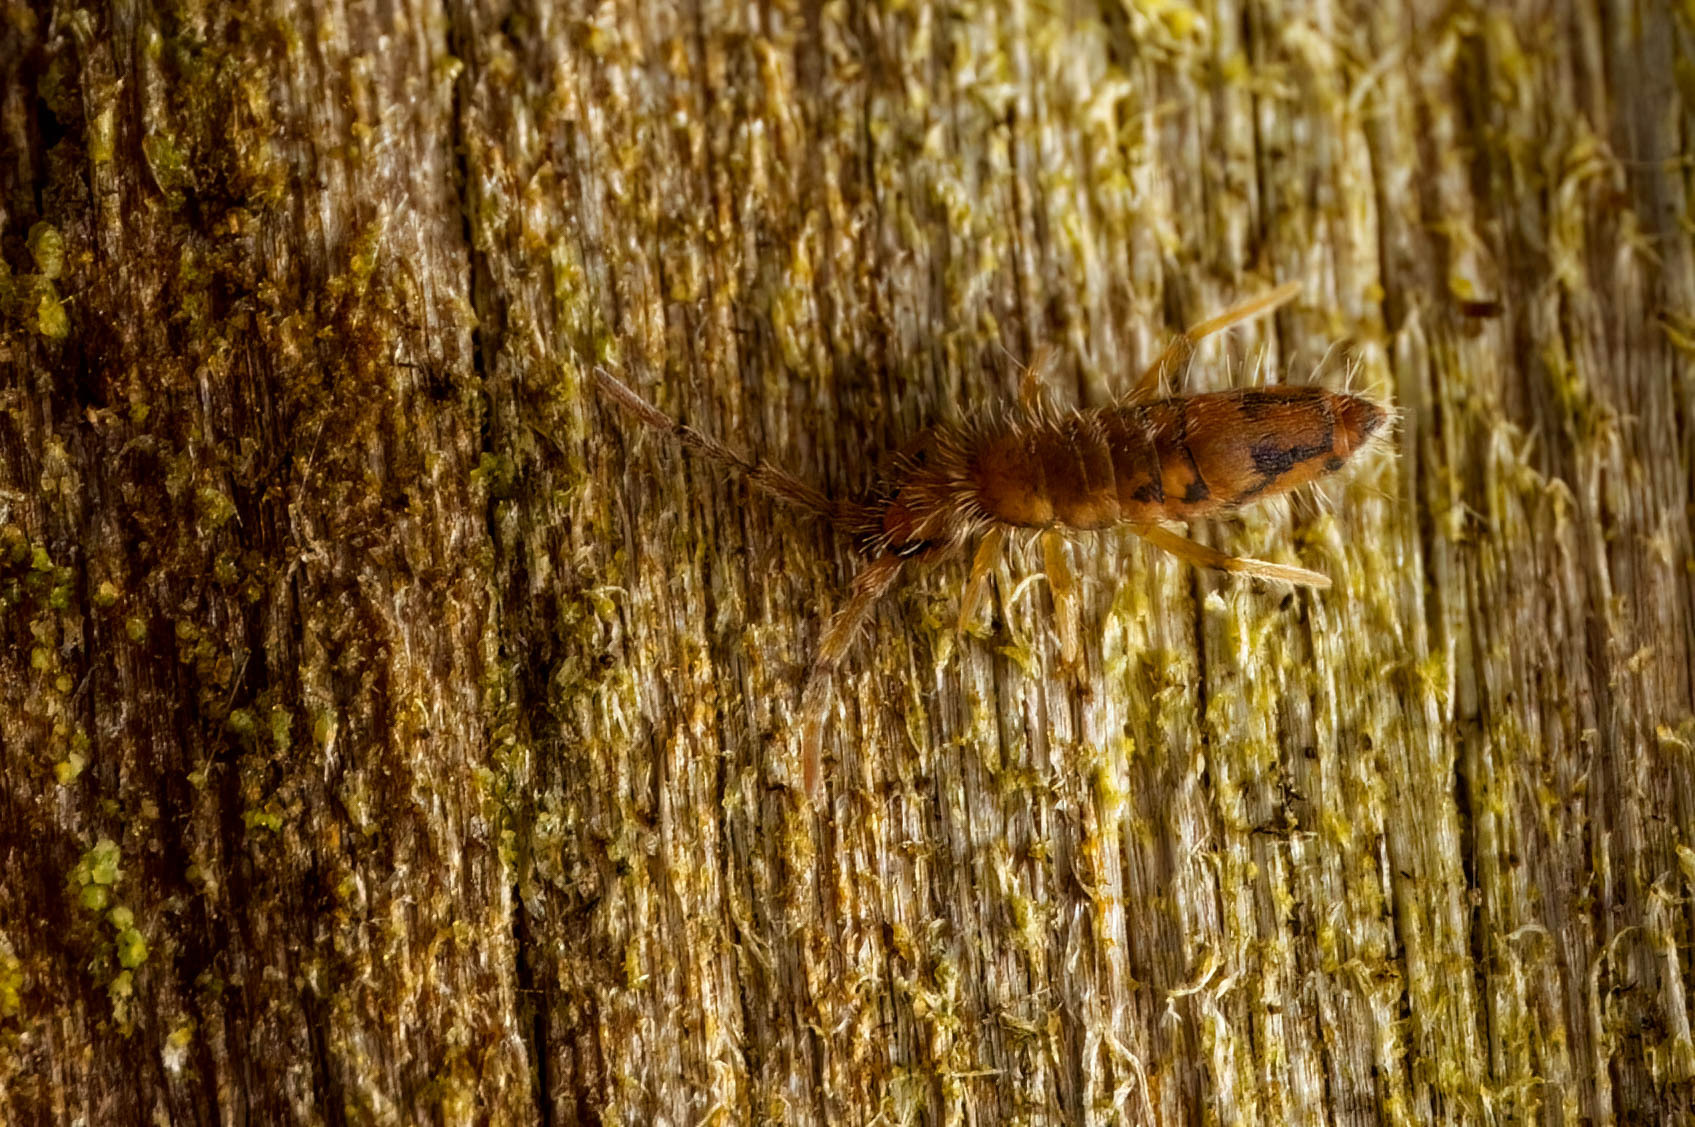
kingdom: Animalia
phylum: Arthropoda
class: Collembola
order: Entomobryomorpha
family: Entomobryidae
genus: Entomobrya
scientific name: Entomobrya nivalis
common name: Cosmopolitan springtail
